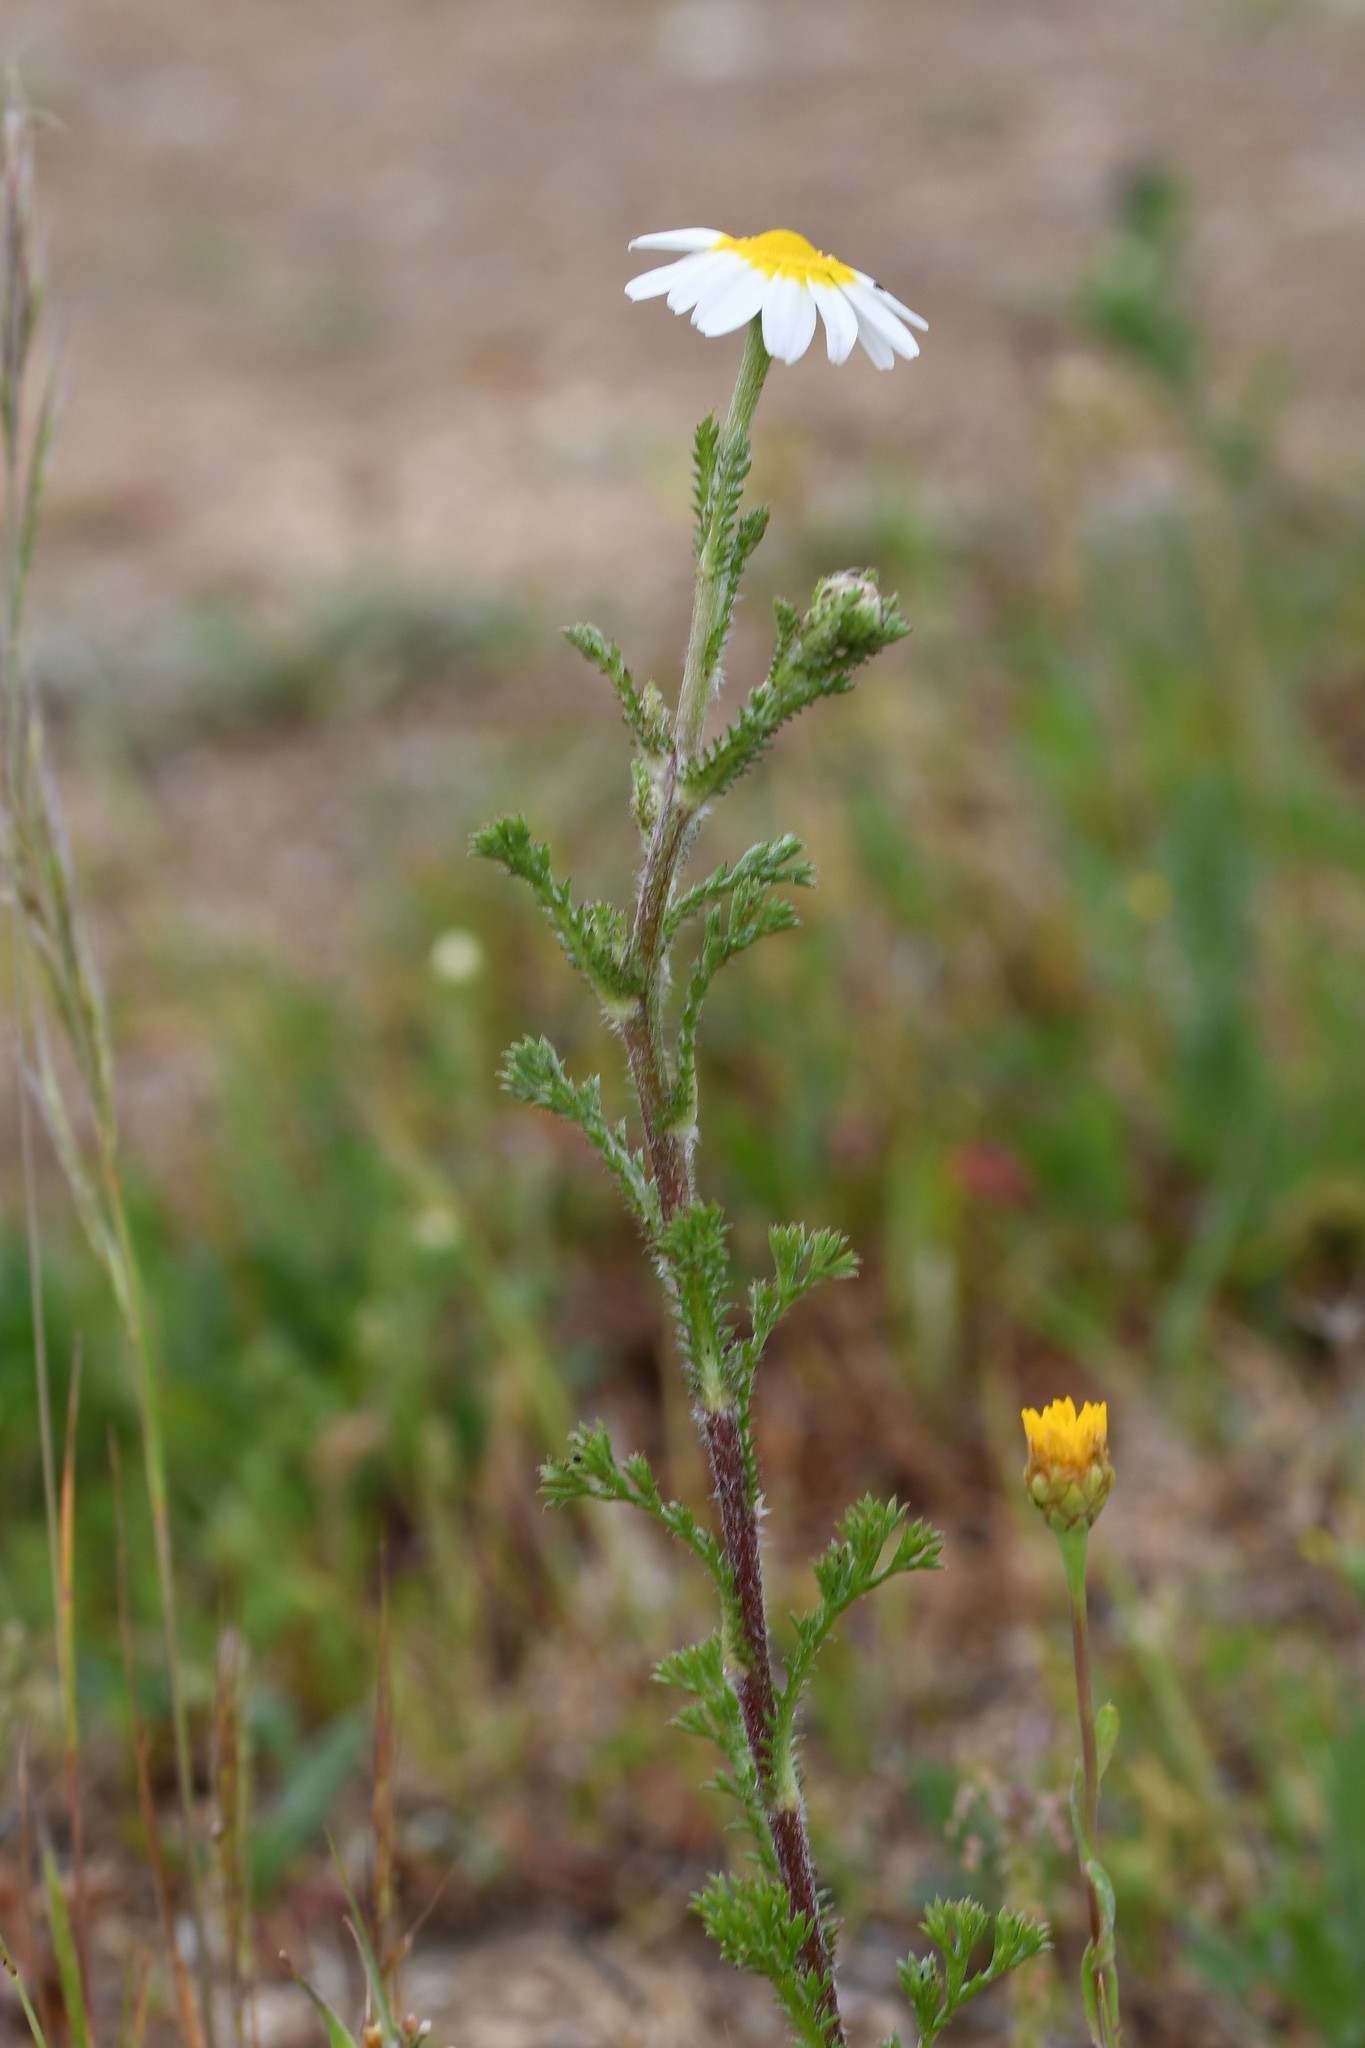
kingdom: Plantae
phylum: Tracheophyta
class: Magnoliopsida
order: Asterales
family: Asteraceae
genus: Cladanthus
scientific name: Cladanthus mixtus
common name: Weedy dogfennel
